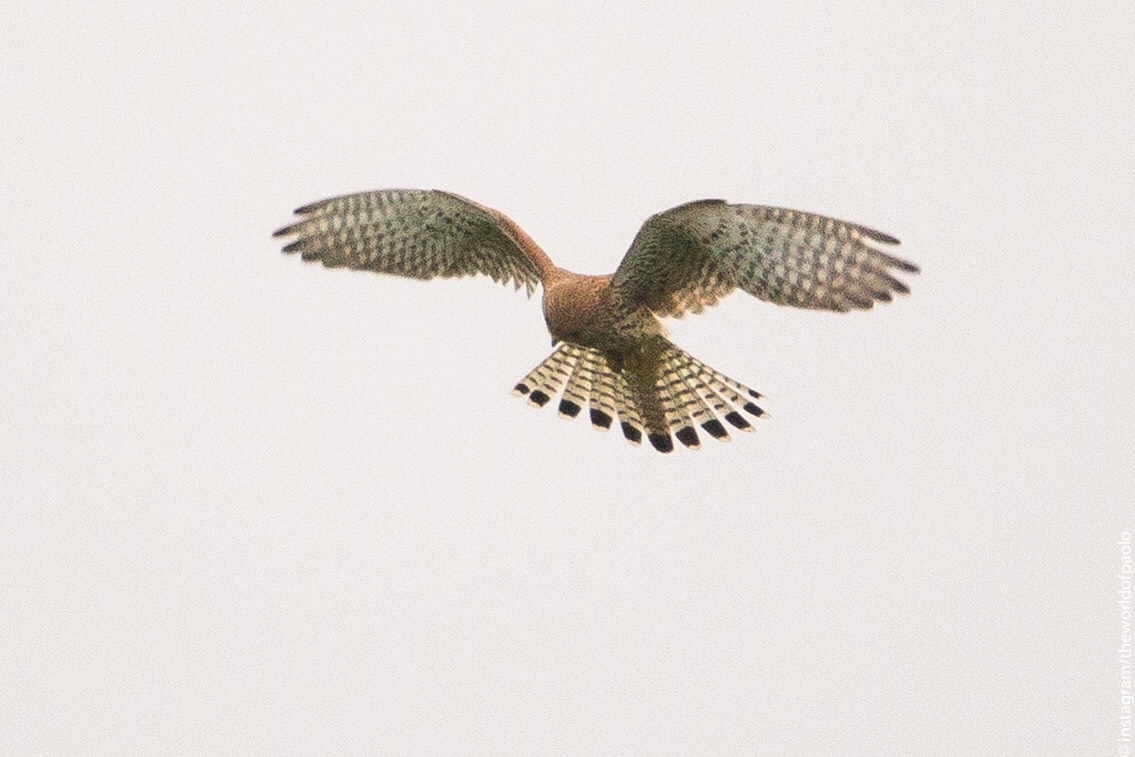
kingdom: Animalia
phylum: Chordata
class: Aves
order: Falconiformes
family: Falconidae
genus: Falco
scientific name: Falco tinnunculus
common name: Common kestrel
